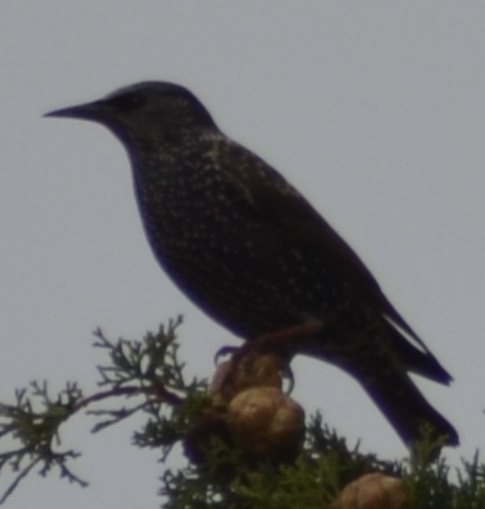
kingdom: Animalia
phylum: Chordata
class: Aves
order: Passeriformes
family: Sturnidae
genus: Sturnus
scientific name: Sturnus vulgaris
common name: Common starling
